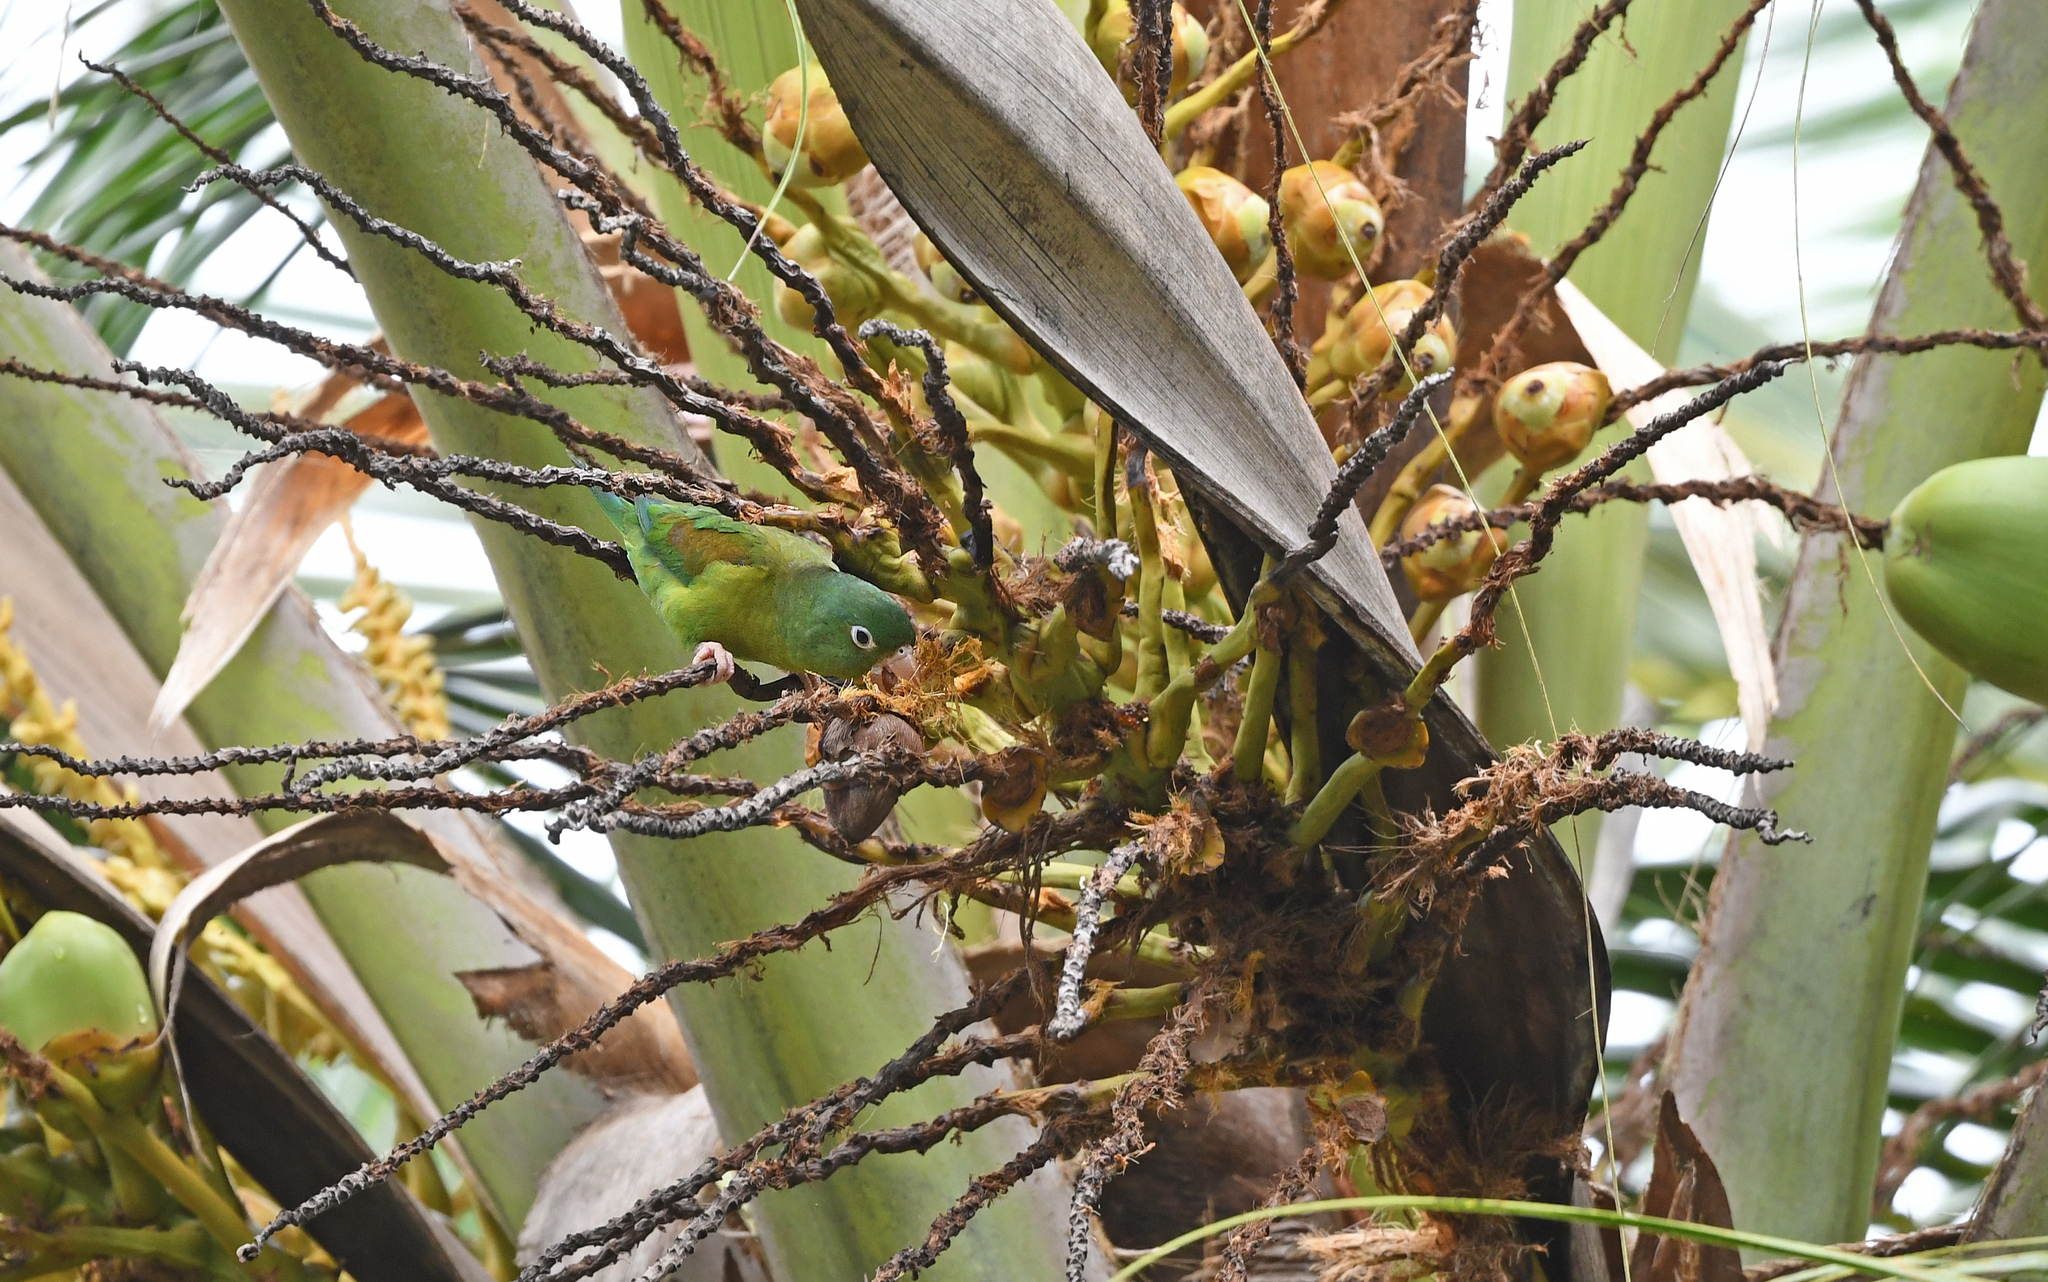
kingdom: Animalia
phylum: Chordata
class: Aves
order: Psittaciformes
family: Psittacidae
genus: Brotogeris
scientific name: Brotogeris jugularis
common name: Orange-chinned parakeet
